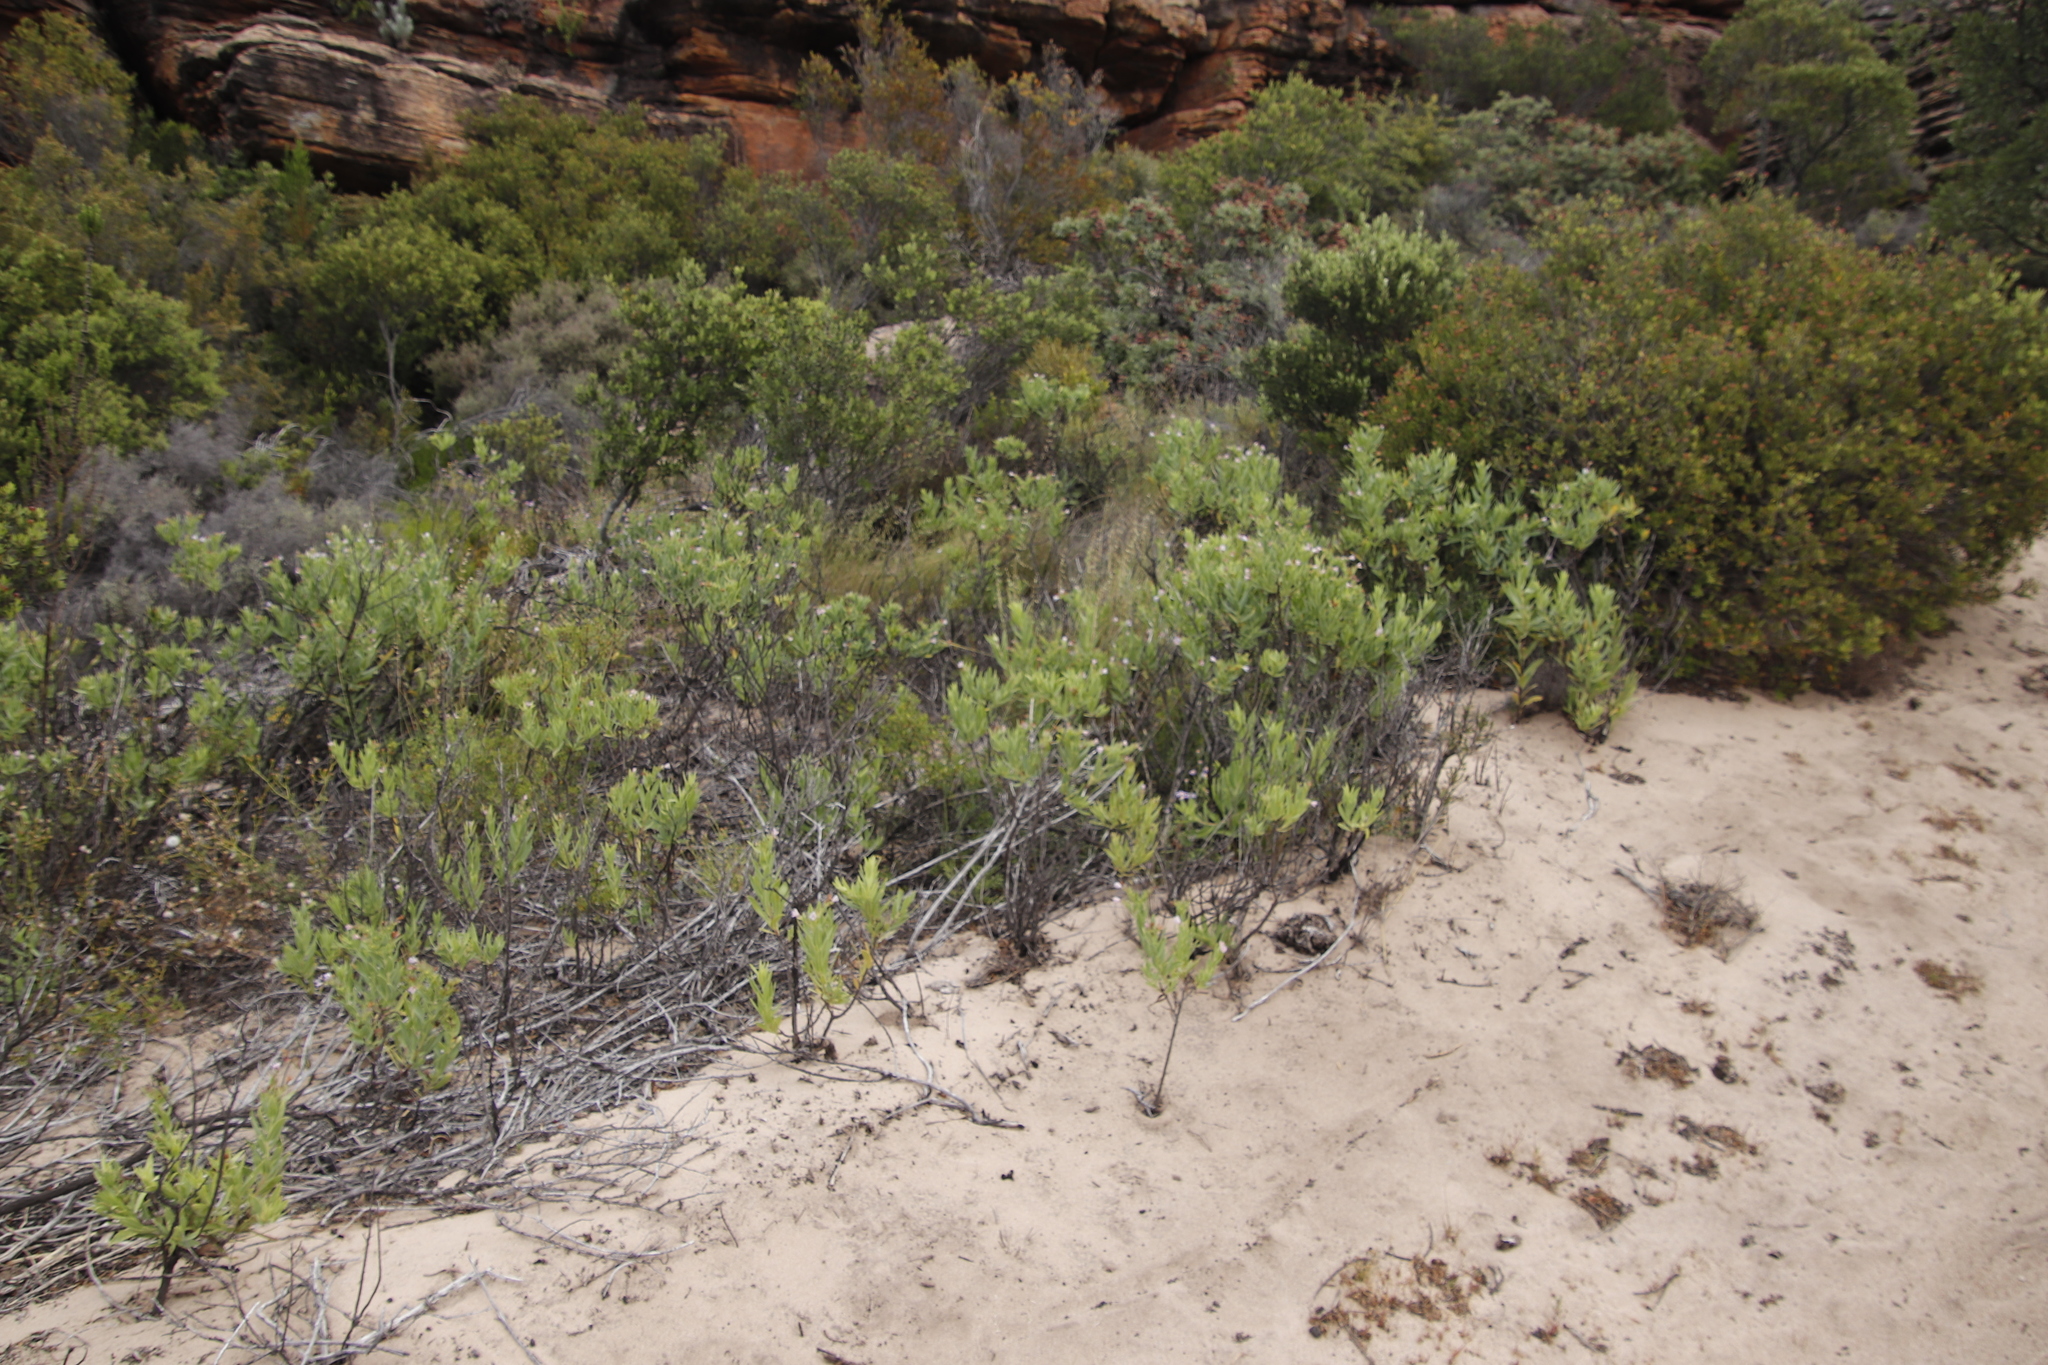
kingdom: Plantae
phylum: Tracheophyta
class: Magnoliopsida
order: Boraginales
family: Boraginaceae
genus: Lobostemon
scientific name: Lobostemon glaucophyllus
